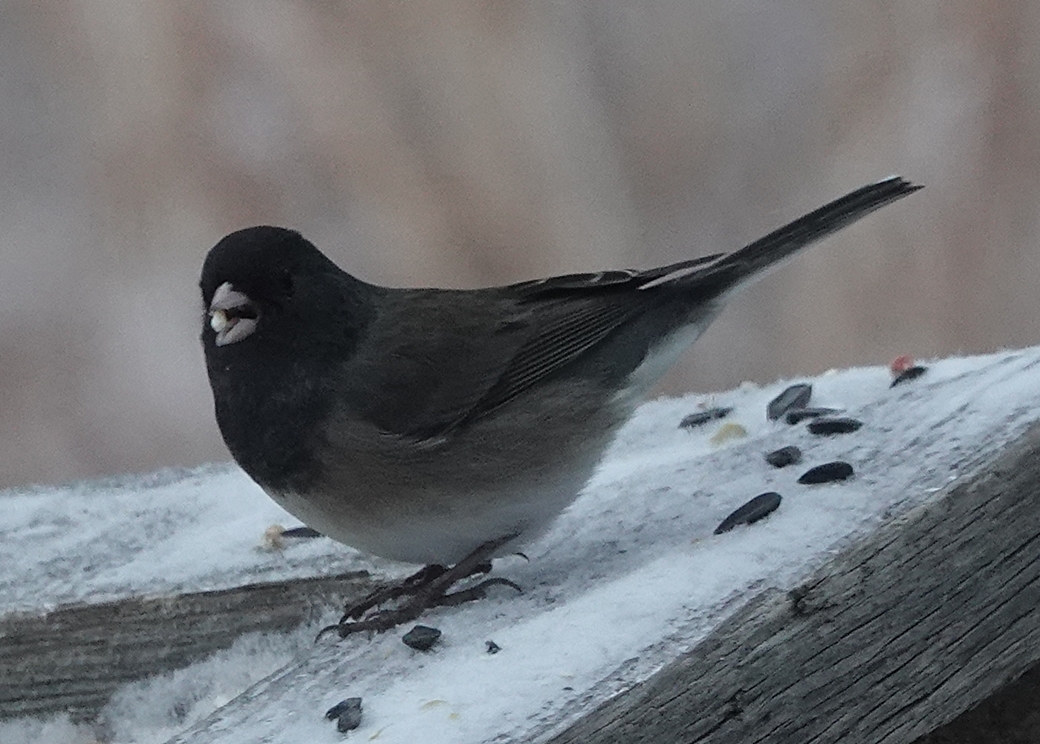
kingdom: Animalia
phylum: Chordata
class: Aves
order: Passeriformes
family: Passerellidae
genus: Junco
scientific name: Junco hyemalis
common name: Dark-eyed junco
